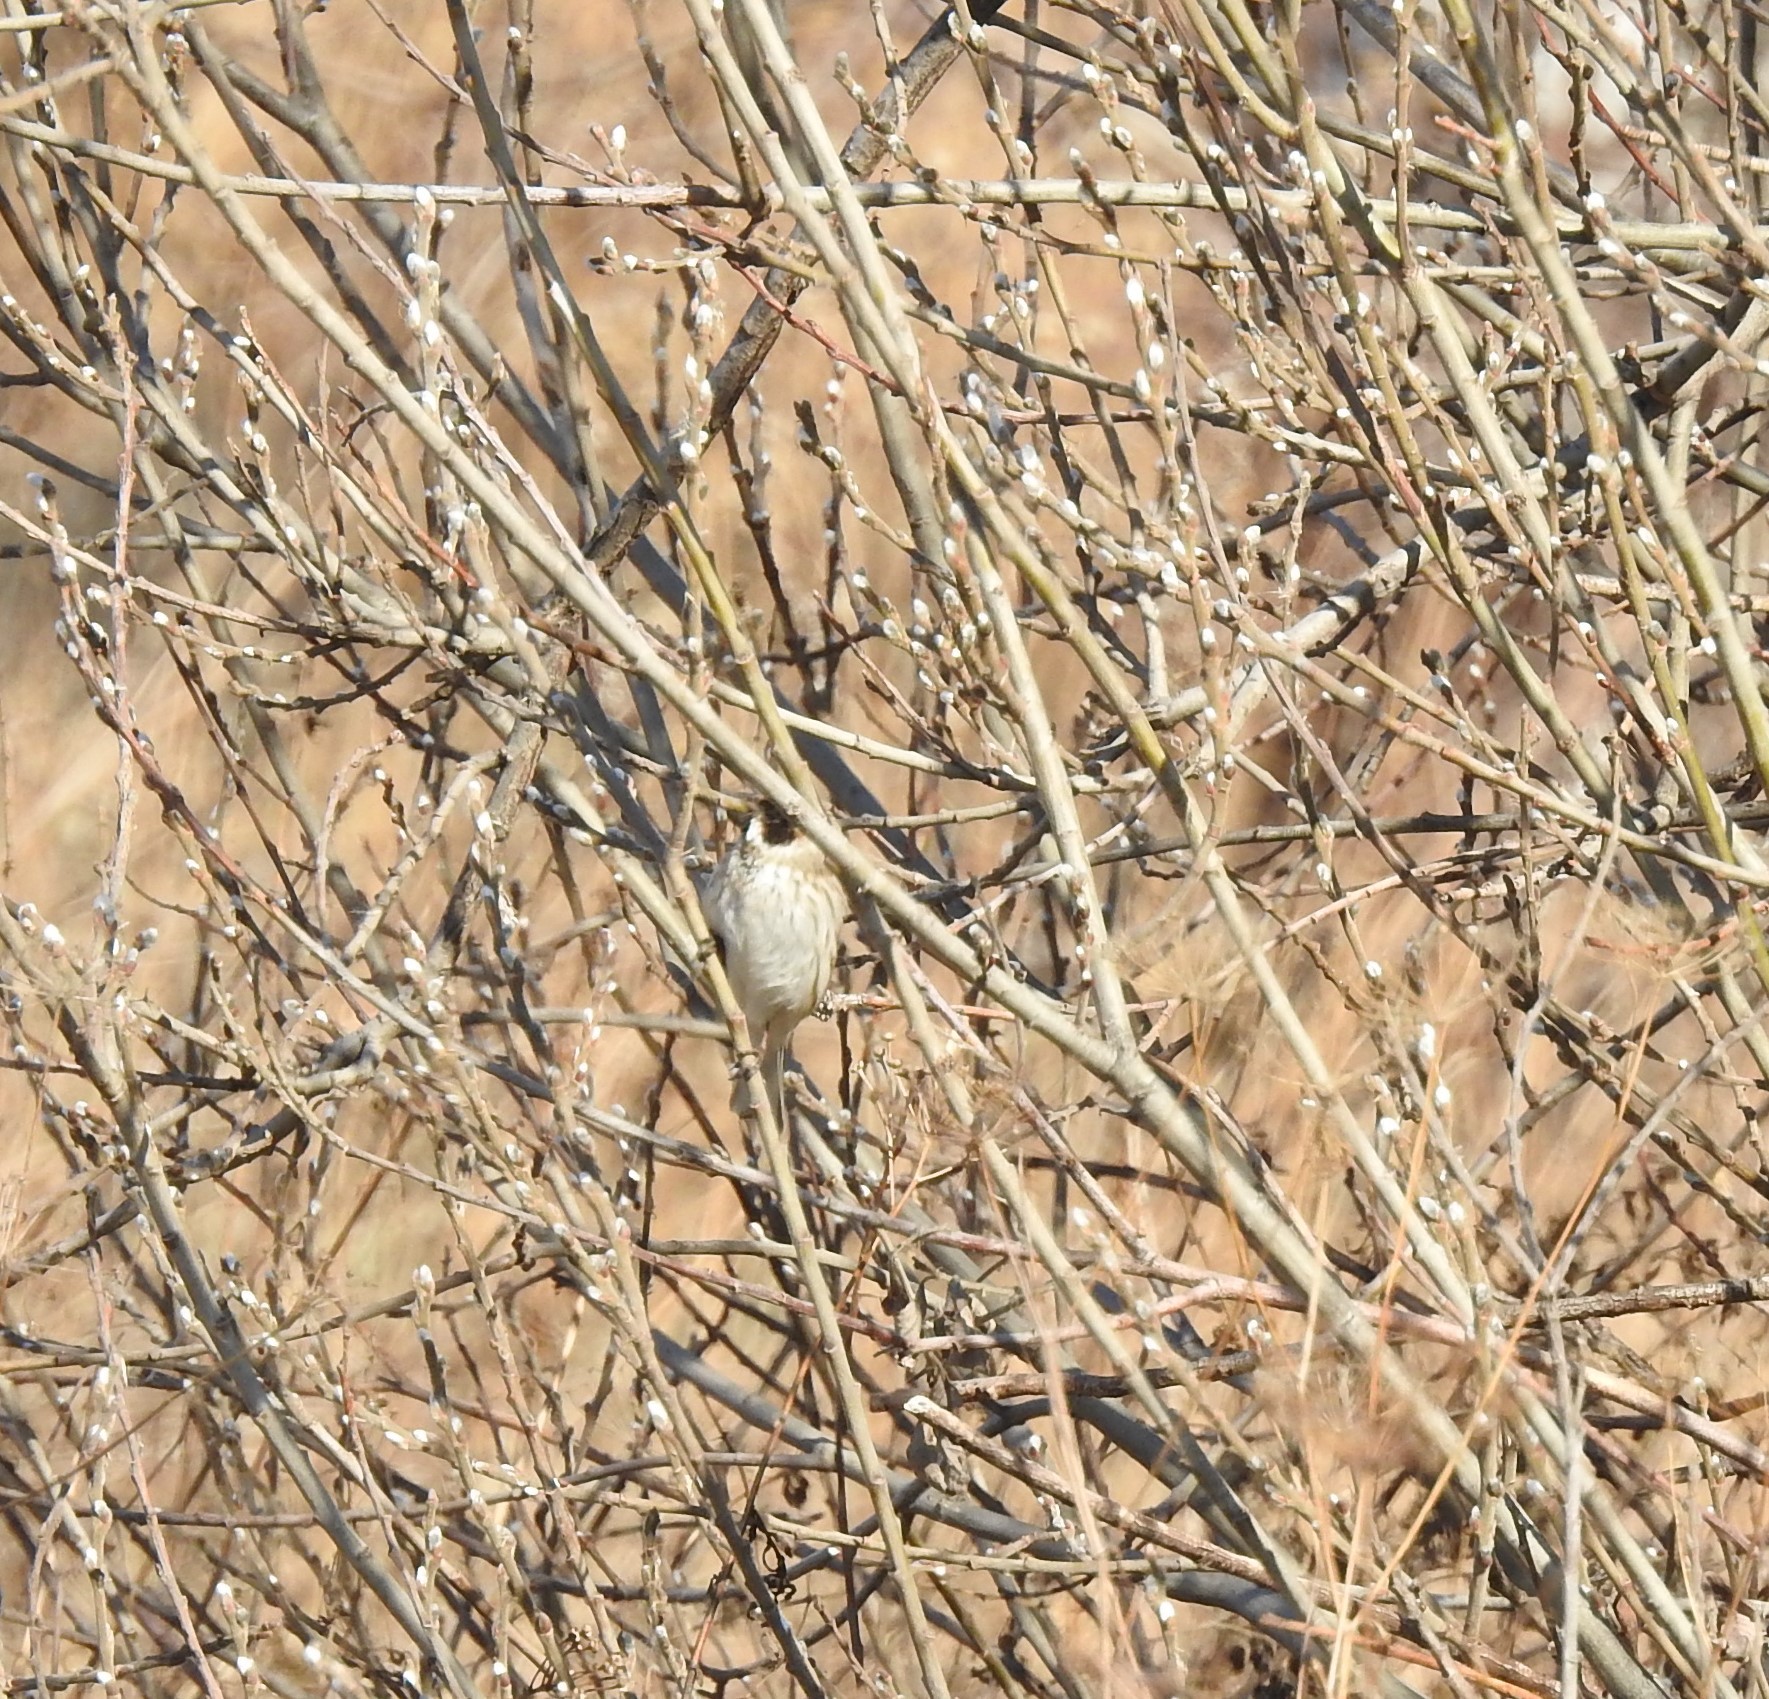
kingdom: Animalia
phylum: Chordata
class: Aves
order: Passeriformes
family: Emberizidae
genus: Emberiza
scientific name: Emberiza schoeniclus
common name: Reed bunting
